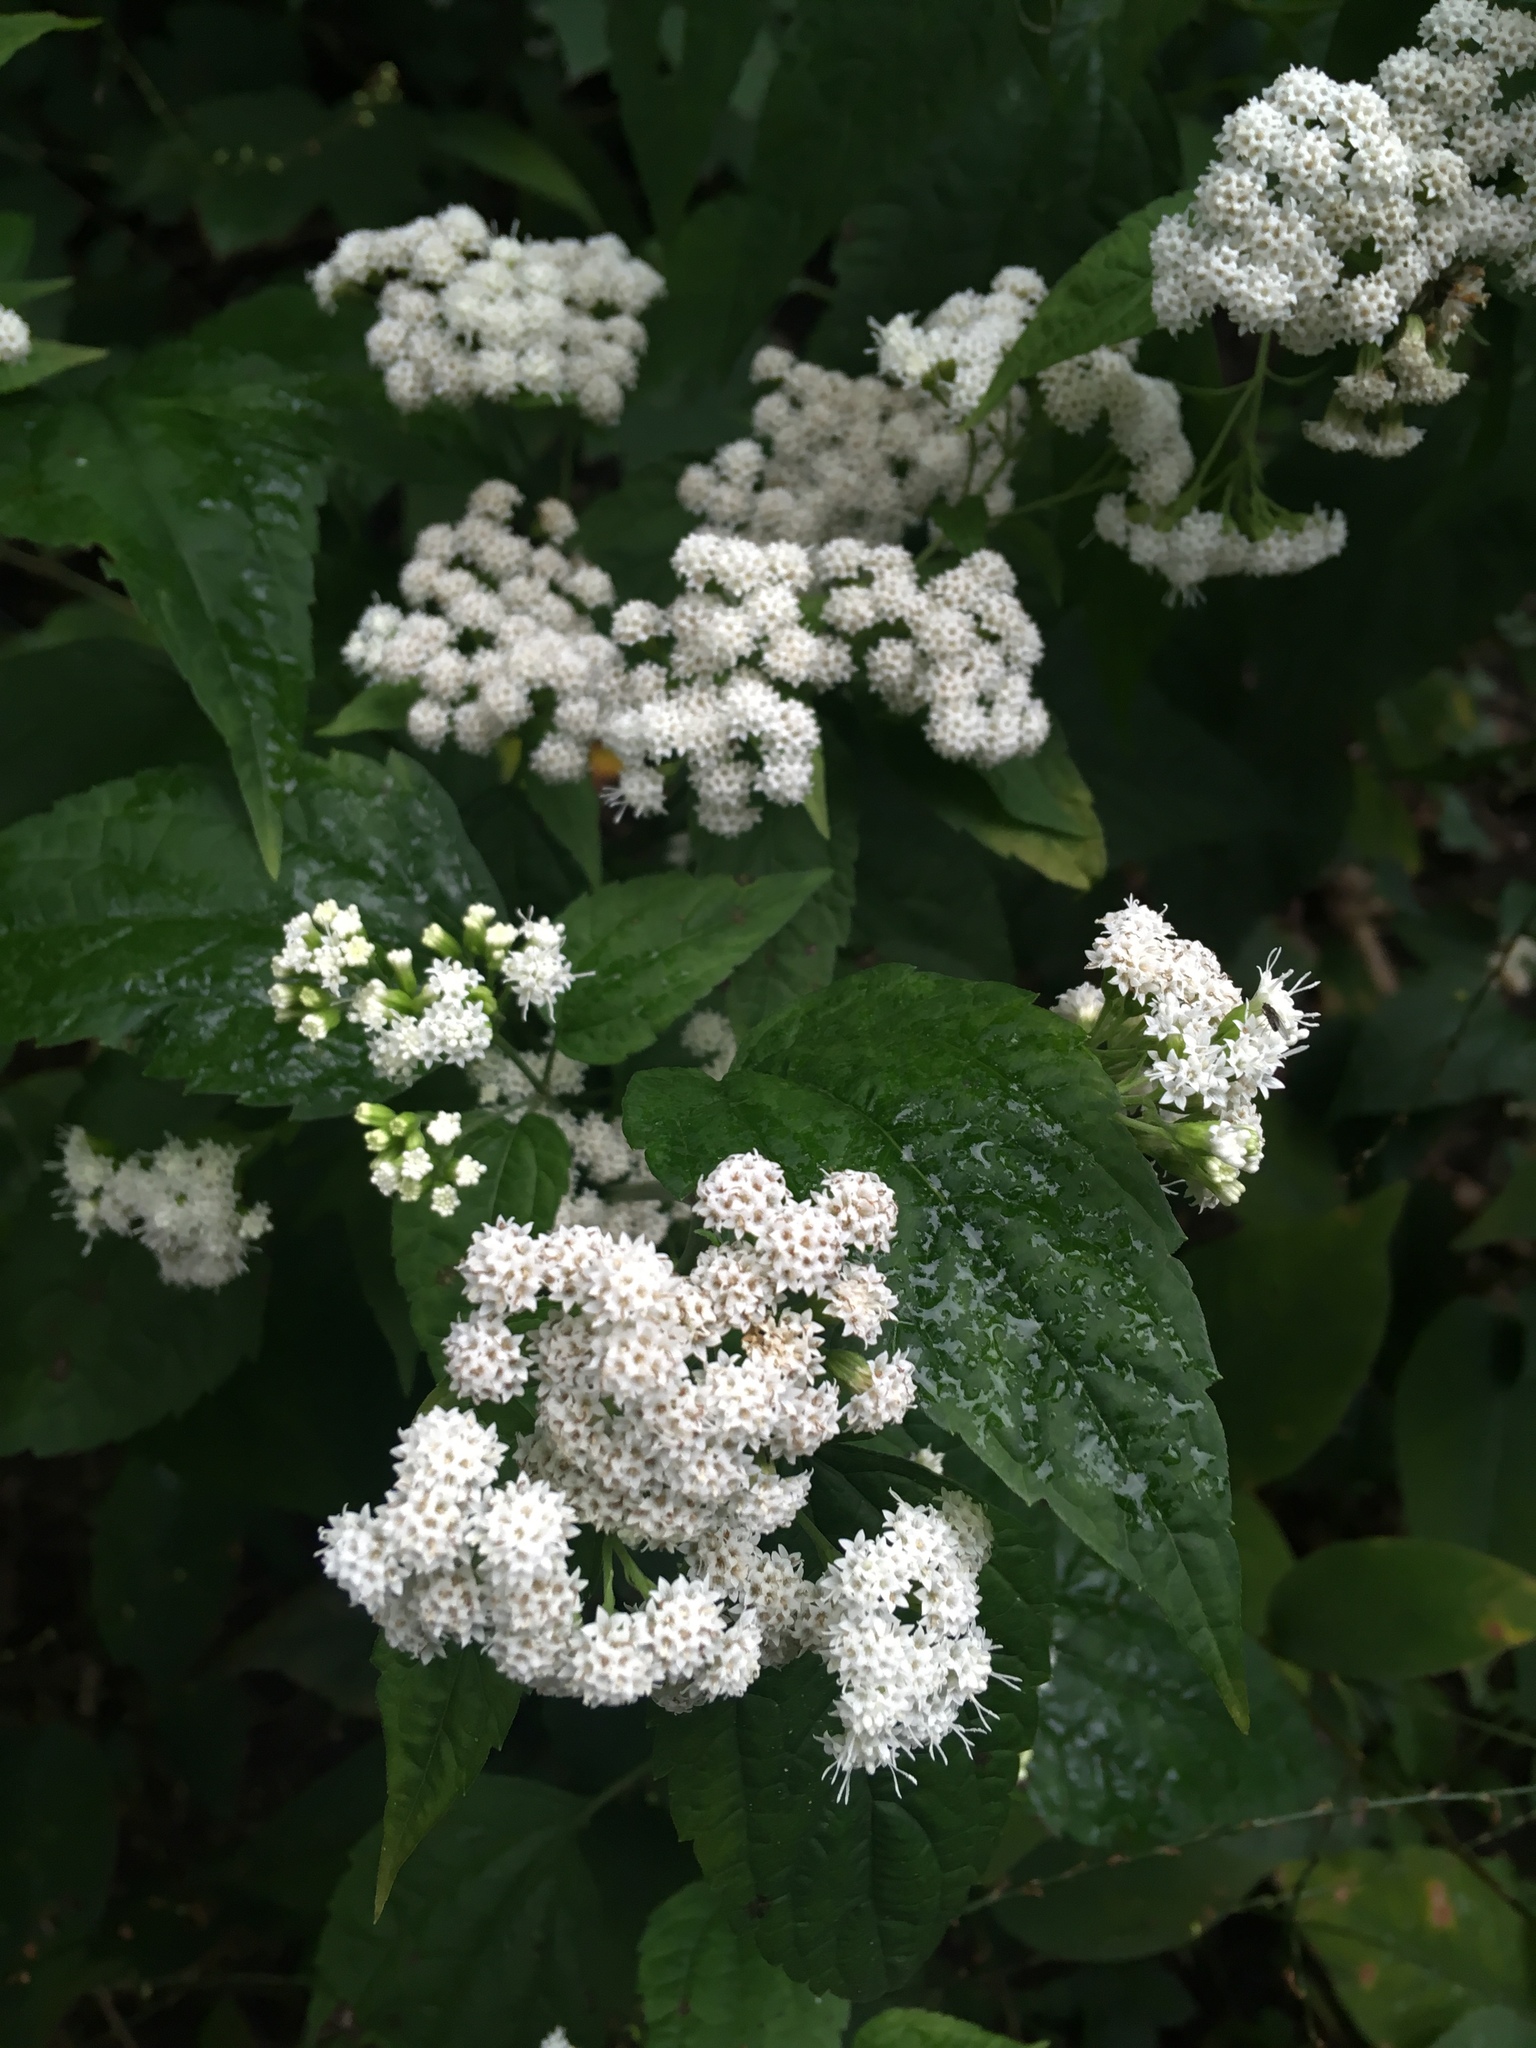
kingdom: Plantae
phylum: Tracheophyta
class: Magnoliopsida
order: Asterales
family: Asteraceae
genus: Ageratina
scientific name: Ageratina altissima
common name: White snakeroot
